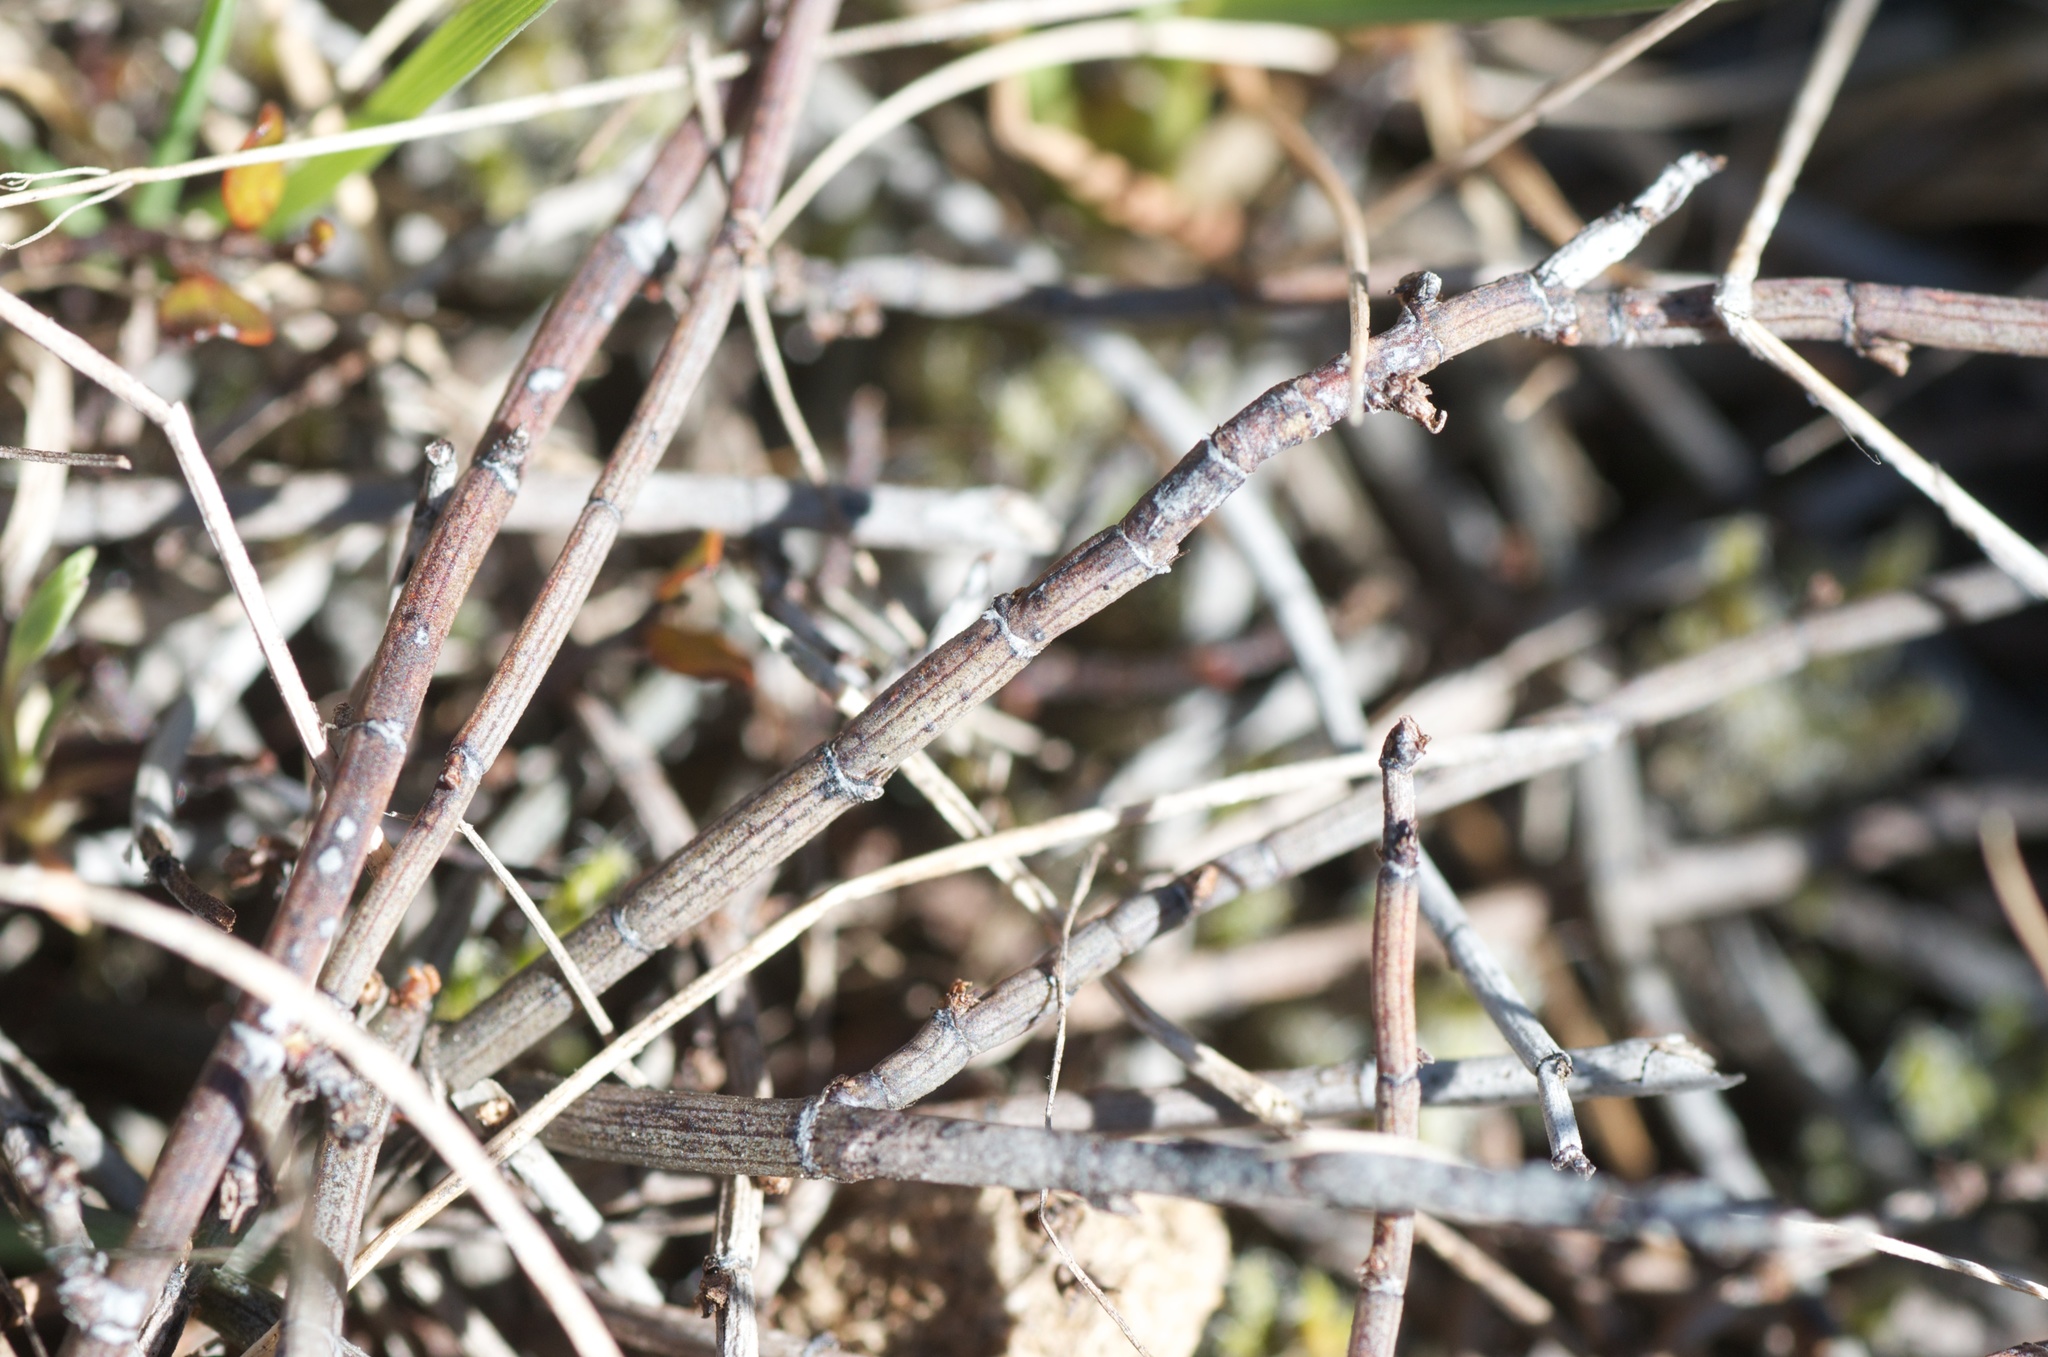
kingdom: Plantae
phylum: Tracheophyta
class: Magnoliopsida
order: Caryophyllales
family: Polygonaceae
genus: Muehlenbeckia
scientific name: Muehlenbeckia ephedroides
